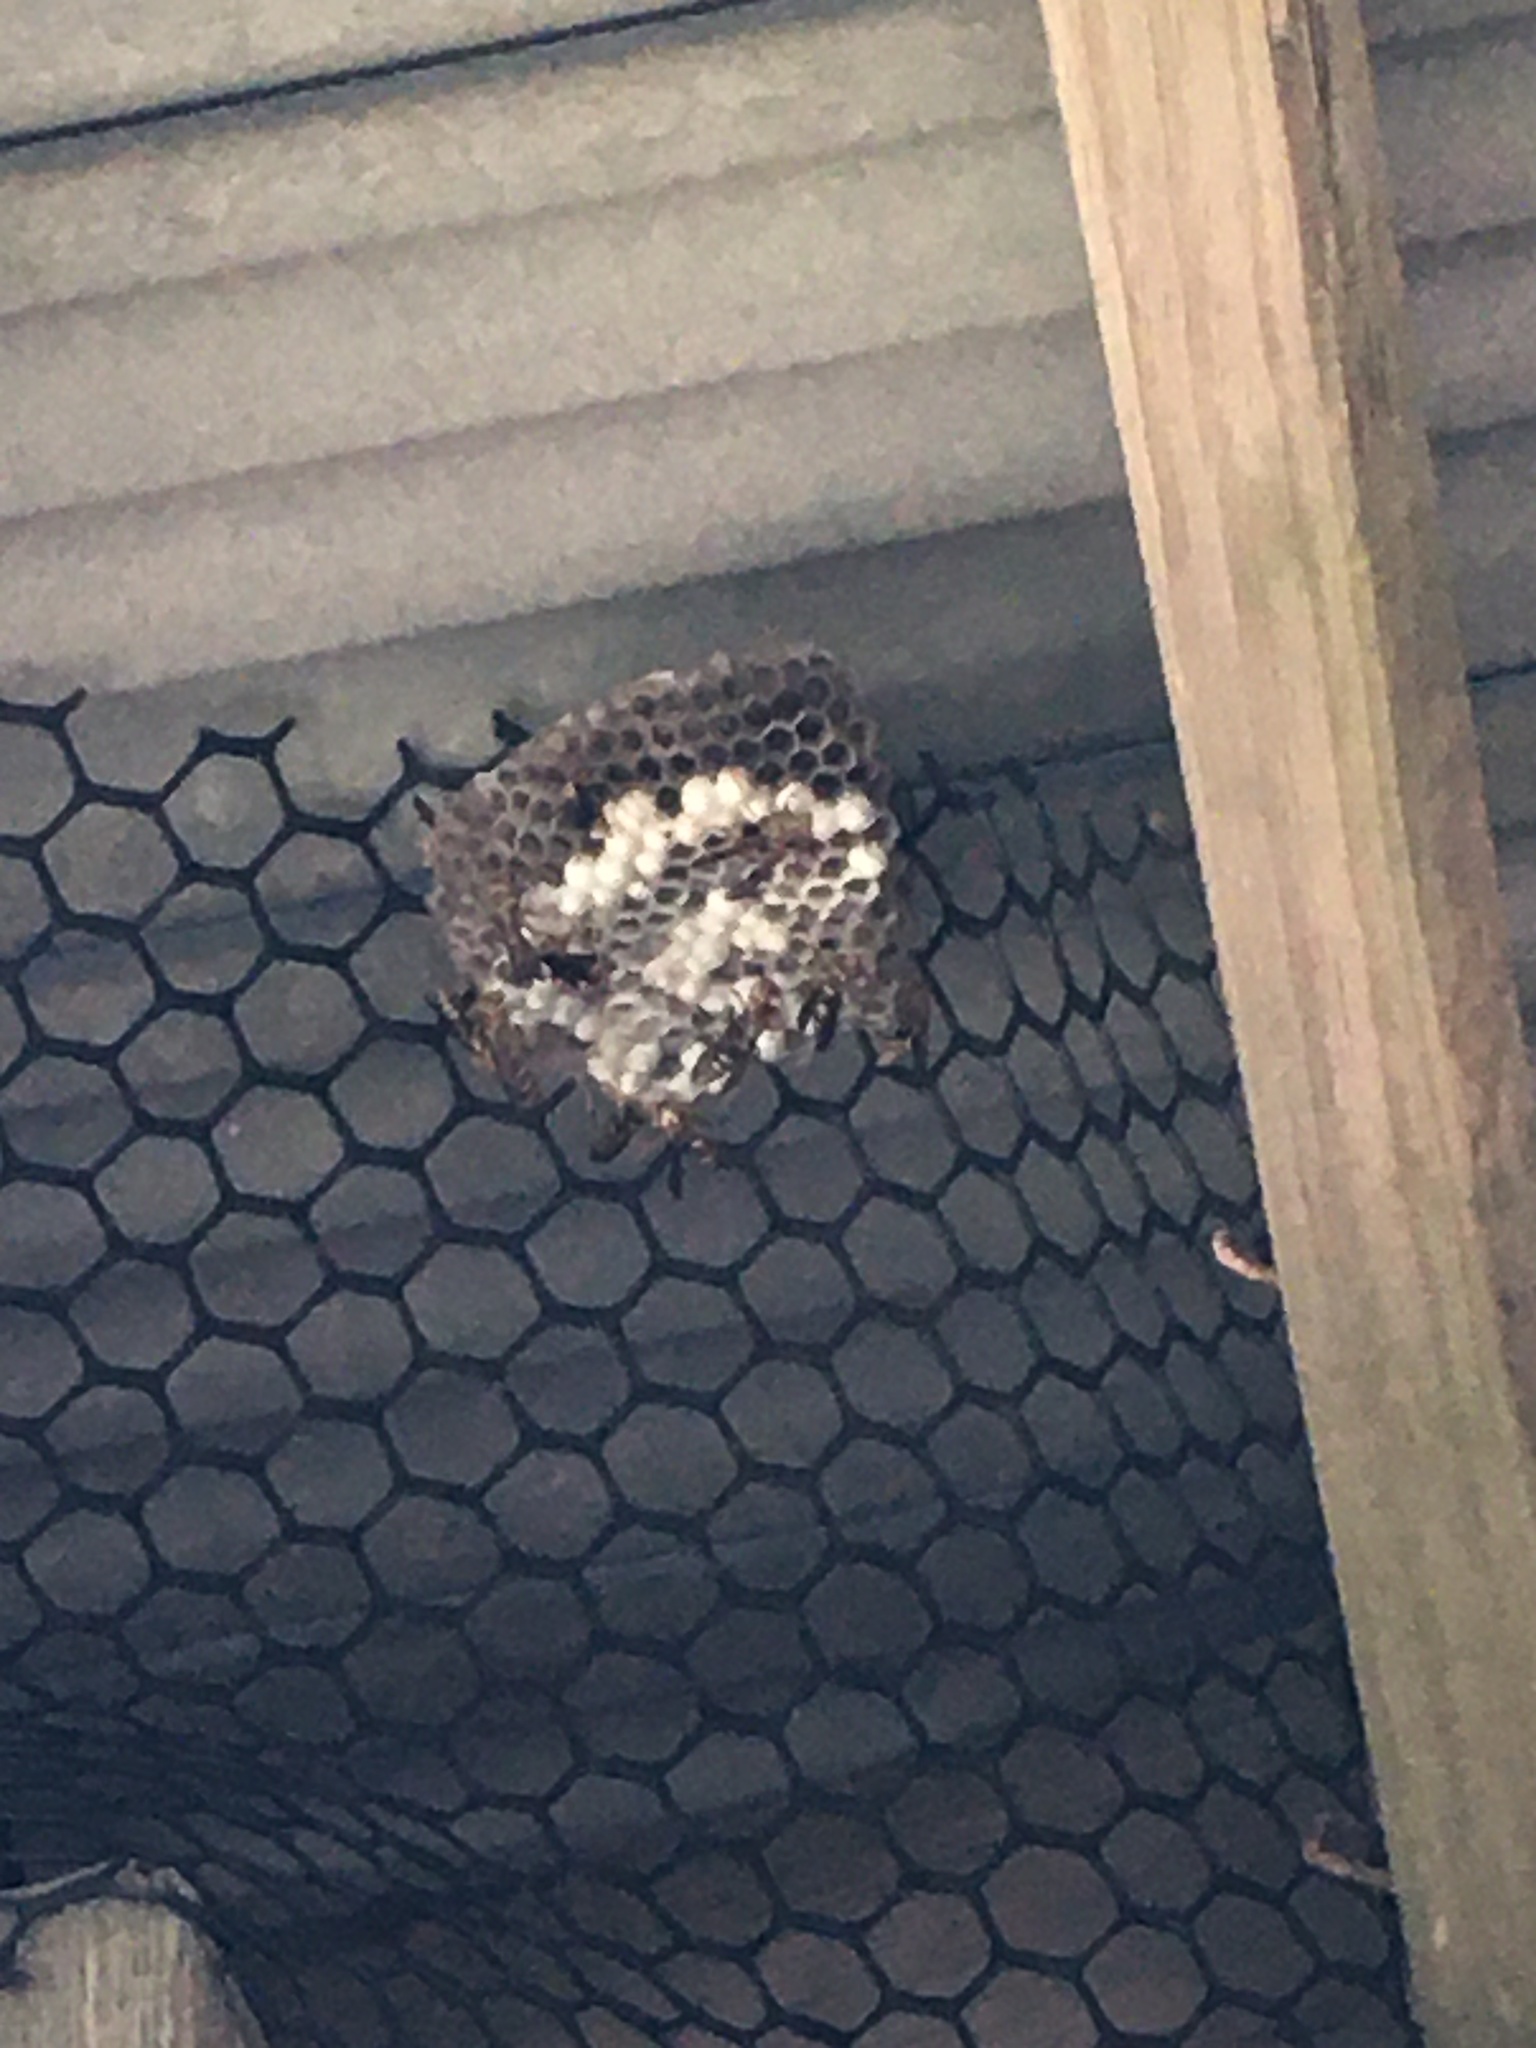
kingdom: Animalia
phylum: Arthropoda
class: Insecta
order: Hymenoptera
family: Eumenidae
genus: Polistes
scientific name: Polistes exclamans
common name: Paper wasp
